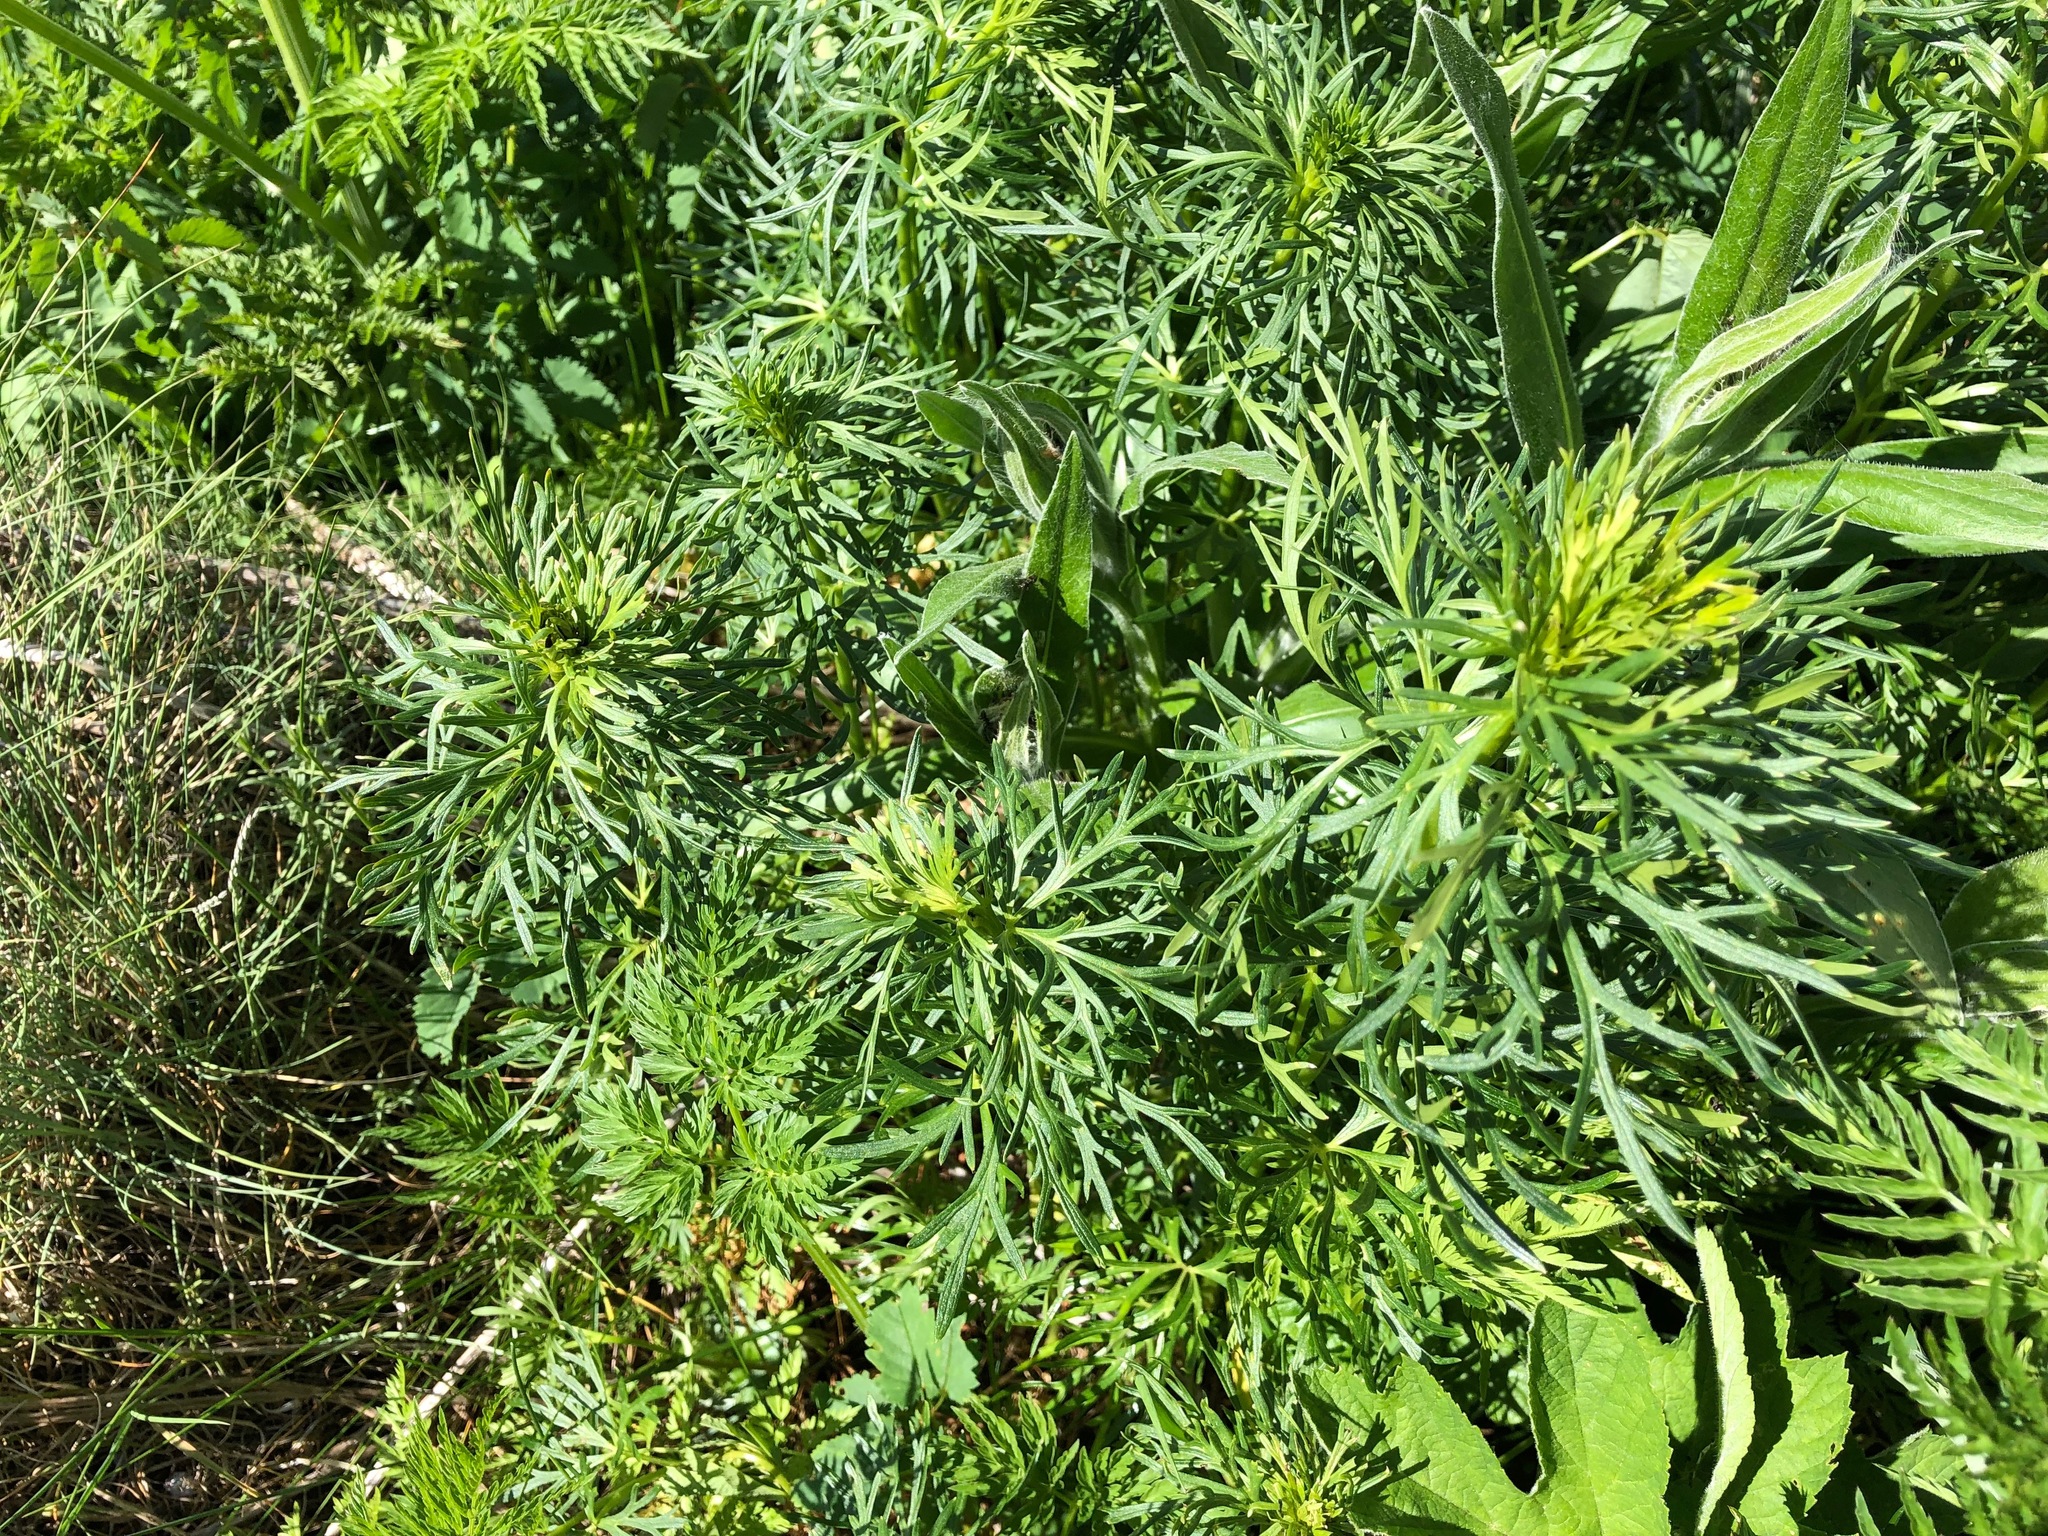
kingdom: Plantae
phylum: Tracheophyta
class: Magnoliopsida
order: Ranunculales
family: Ranunculaceae
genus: Aconitum
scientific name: Aconitum napellus
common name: Garden monkshood
